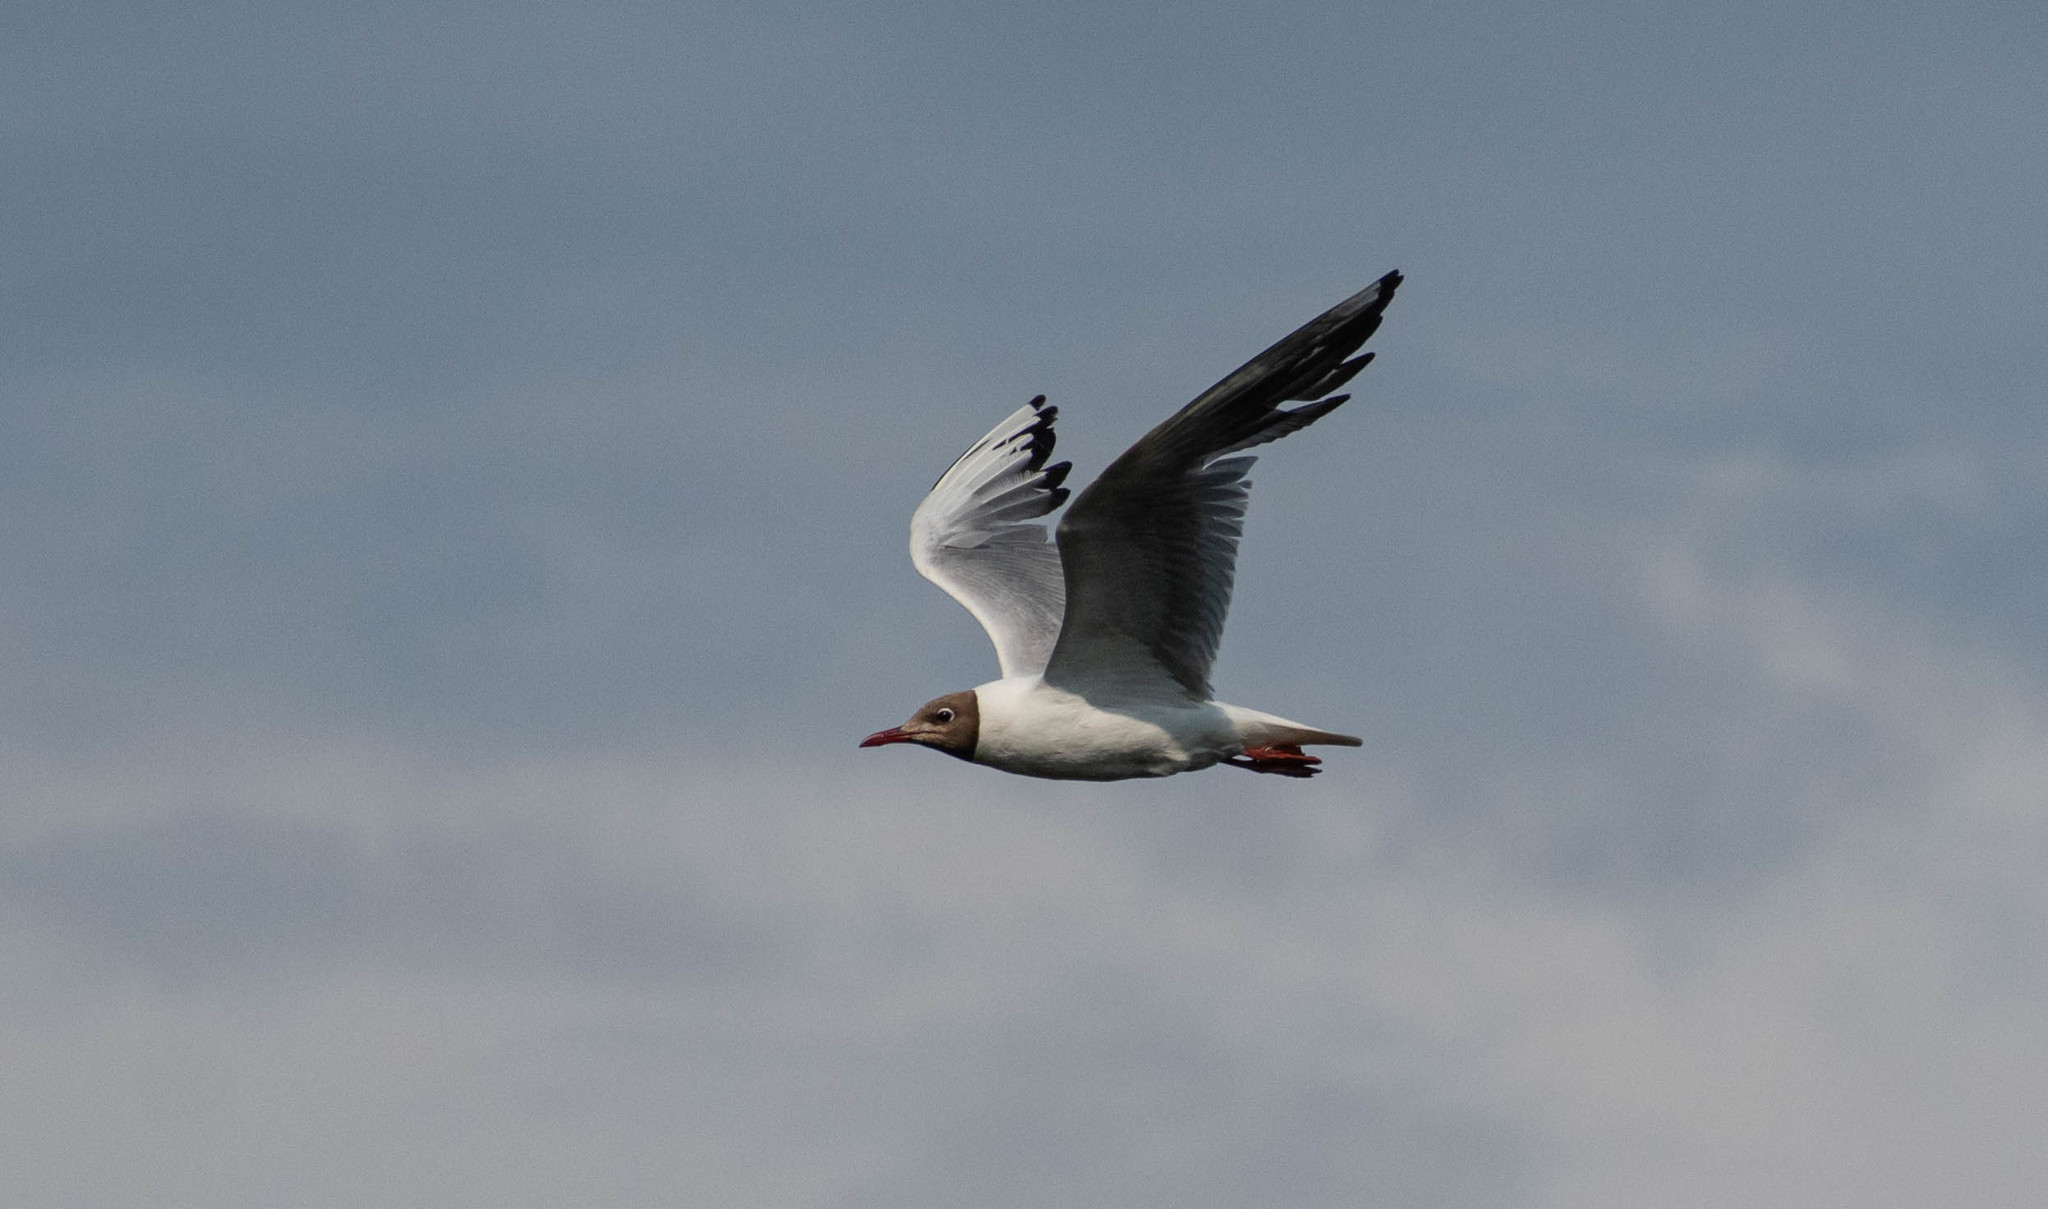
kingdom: Animalia
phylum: Chordata
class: Aves
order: Charadriiformes
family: Laridae
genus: Chroicocephalus
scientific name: Chroicocephalus ridibundus
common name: Black-headed gull
